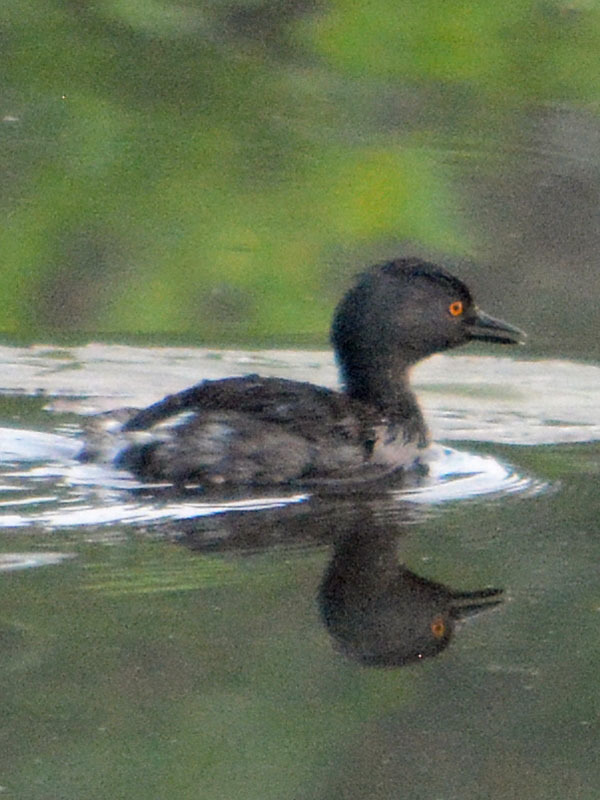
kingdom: Animalia
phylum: Chordata
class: Aves
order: Podicipediformes
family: Podicipedidae
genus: Tachybaptus
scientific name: Tachybaptus dominicus
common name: Least grebe
